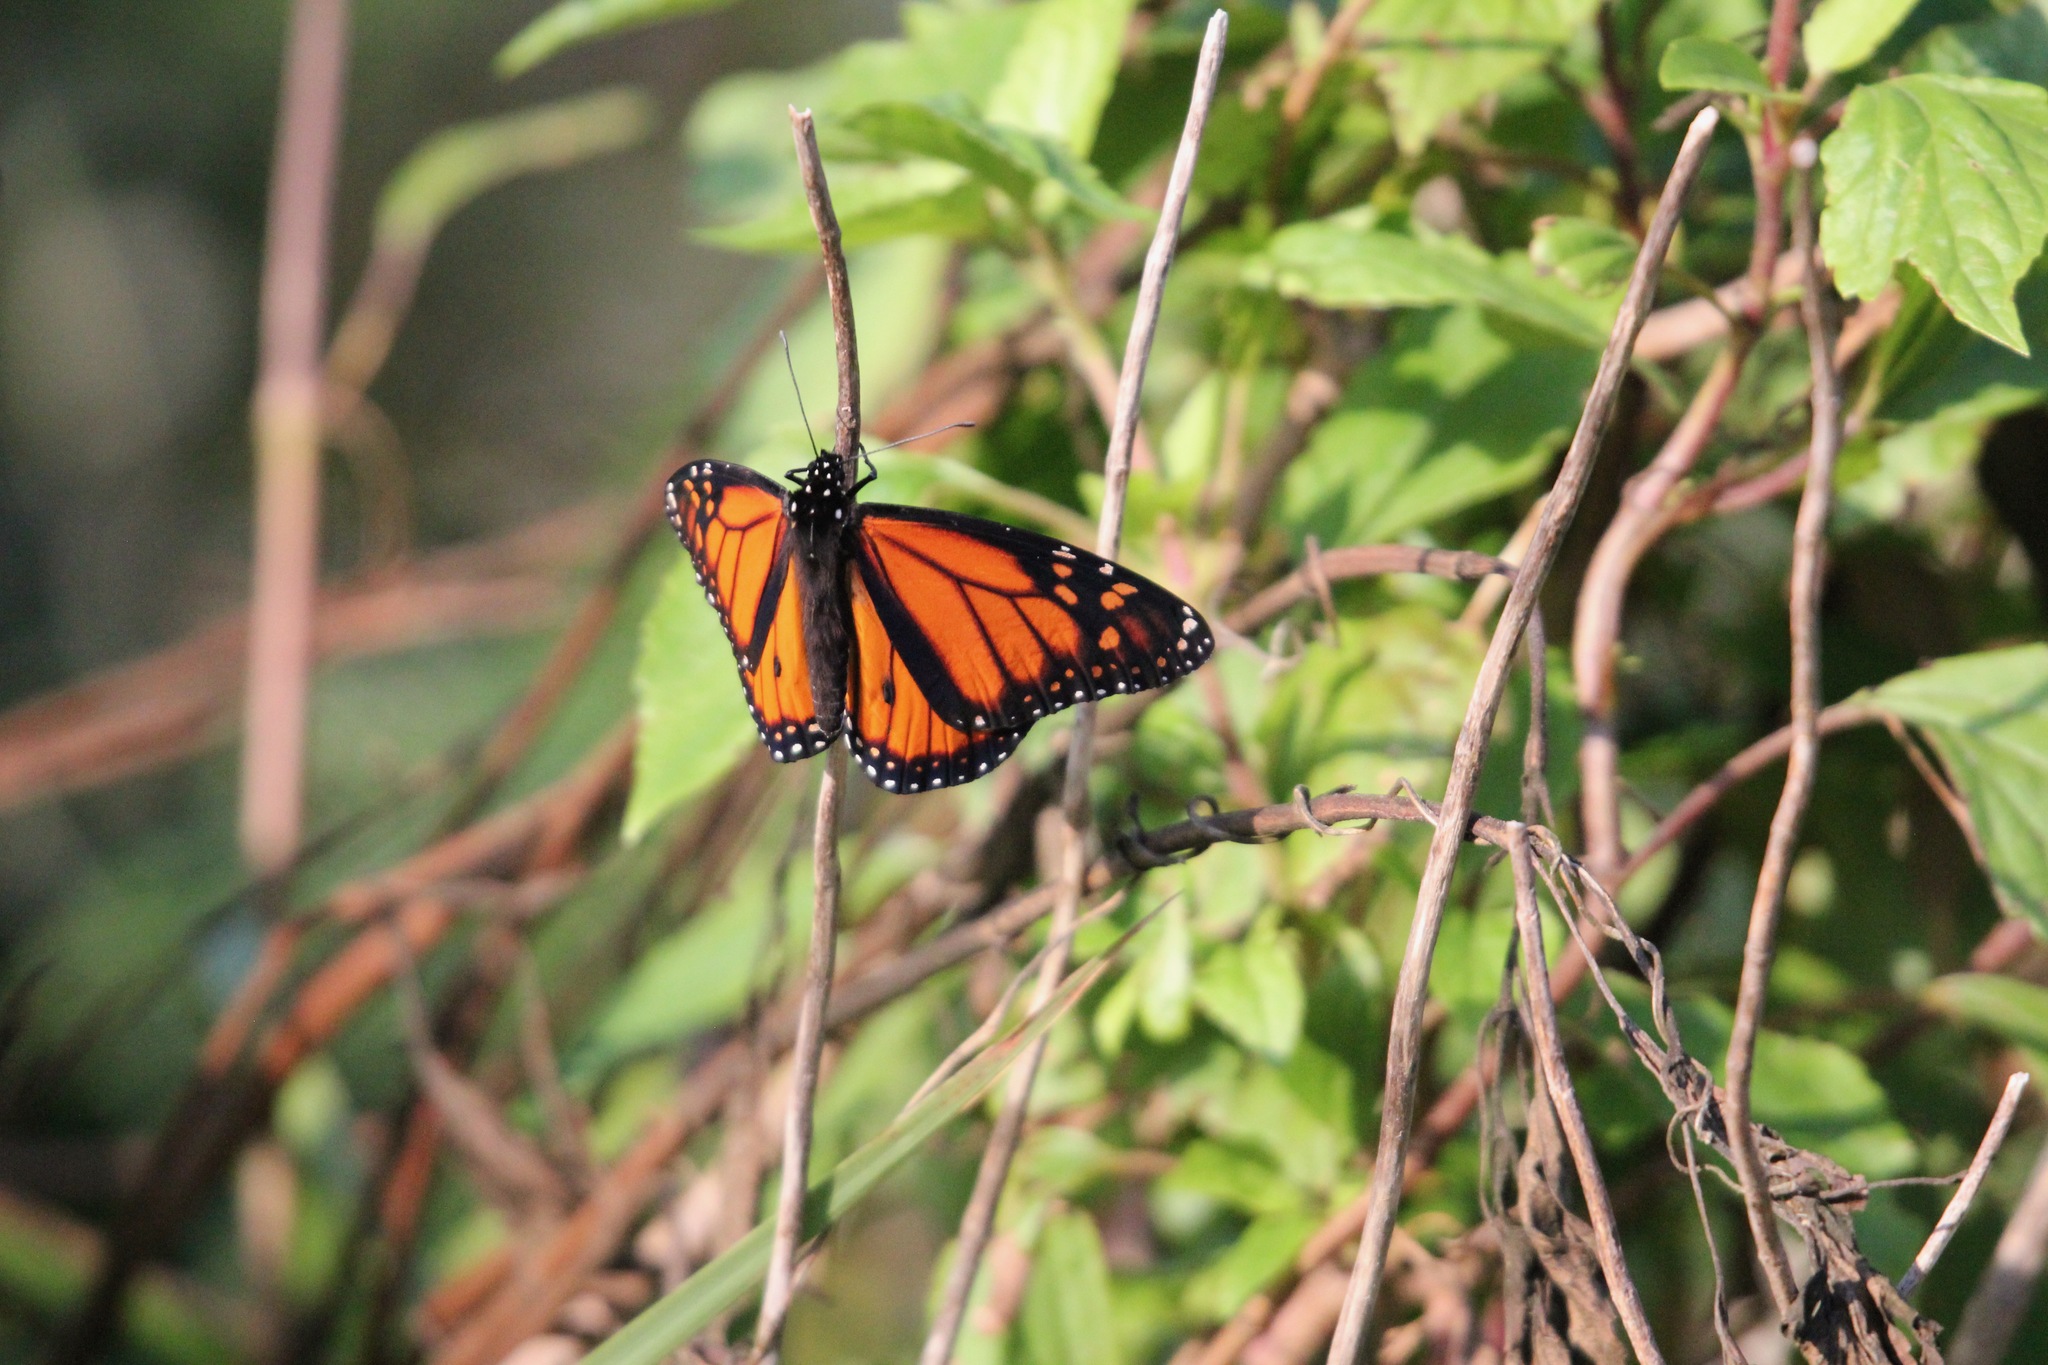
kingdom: Animalia
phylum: Arthropoda
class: Insecta
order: Lepidoptera
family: Nymphalidae
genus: Danaus
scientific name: Danaus plexippus
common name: Monarch
